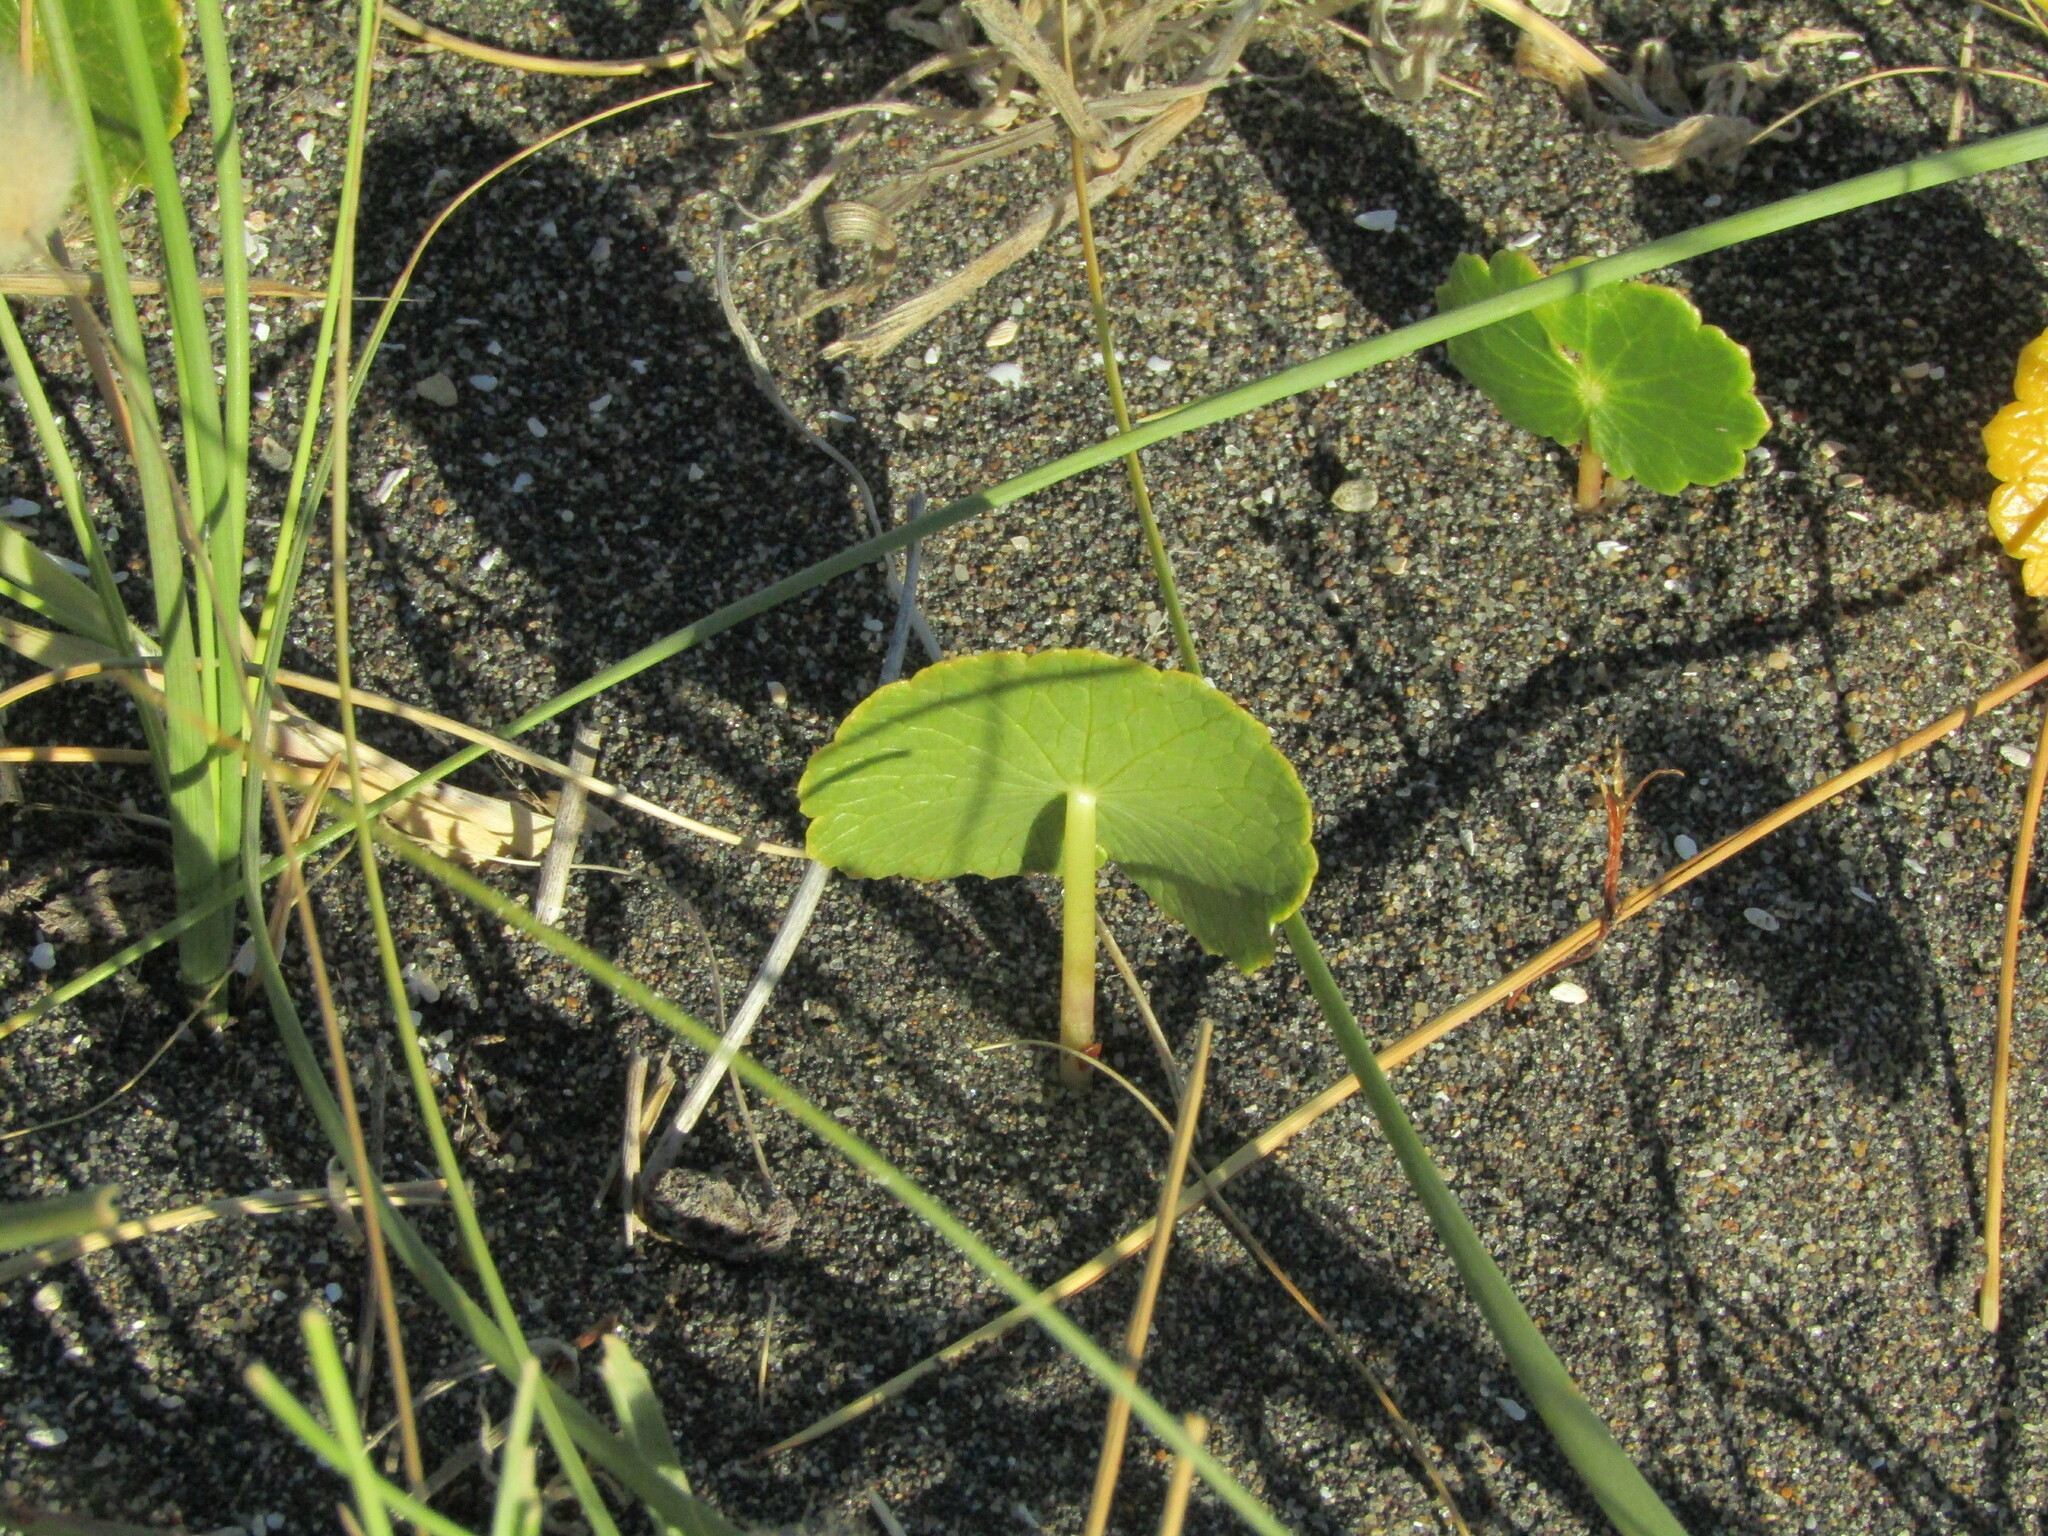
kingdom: Plantae
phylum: Tracheophyta
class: Magnoliopsida
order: Apiales
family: Araliaceae
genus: Hydrocotyle
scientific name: Hydrocotyle bonariensis
